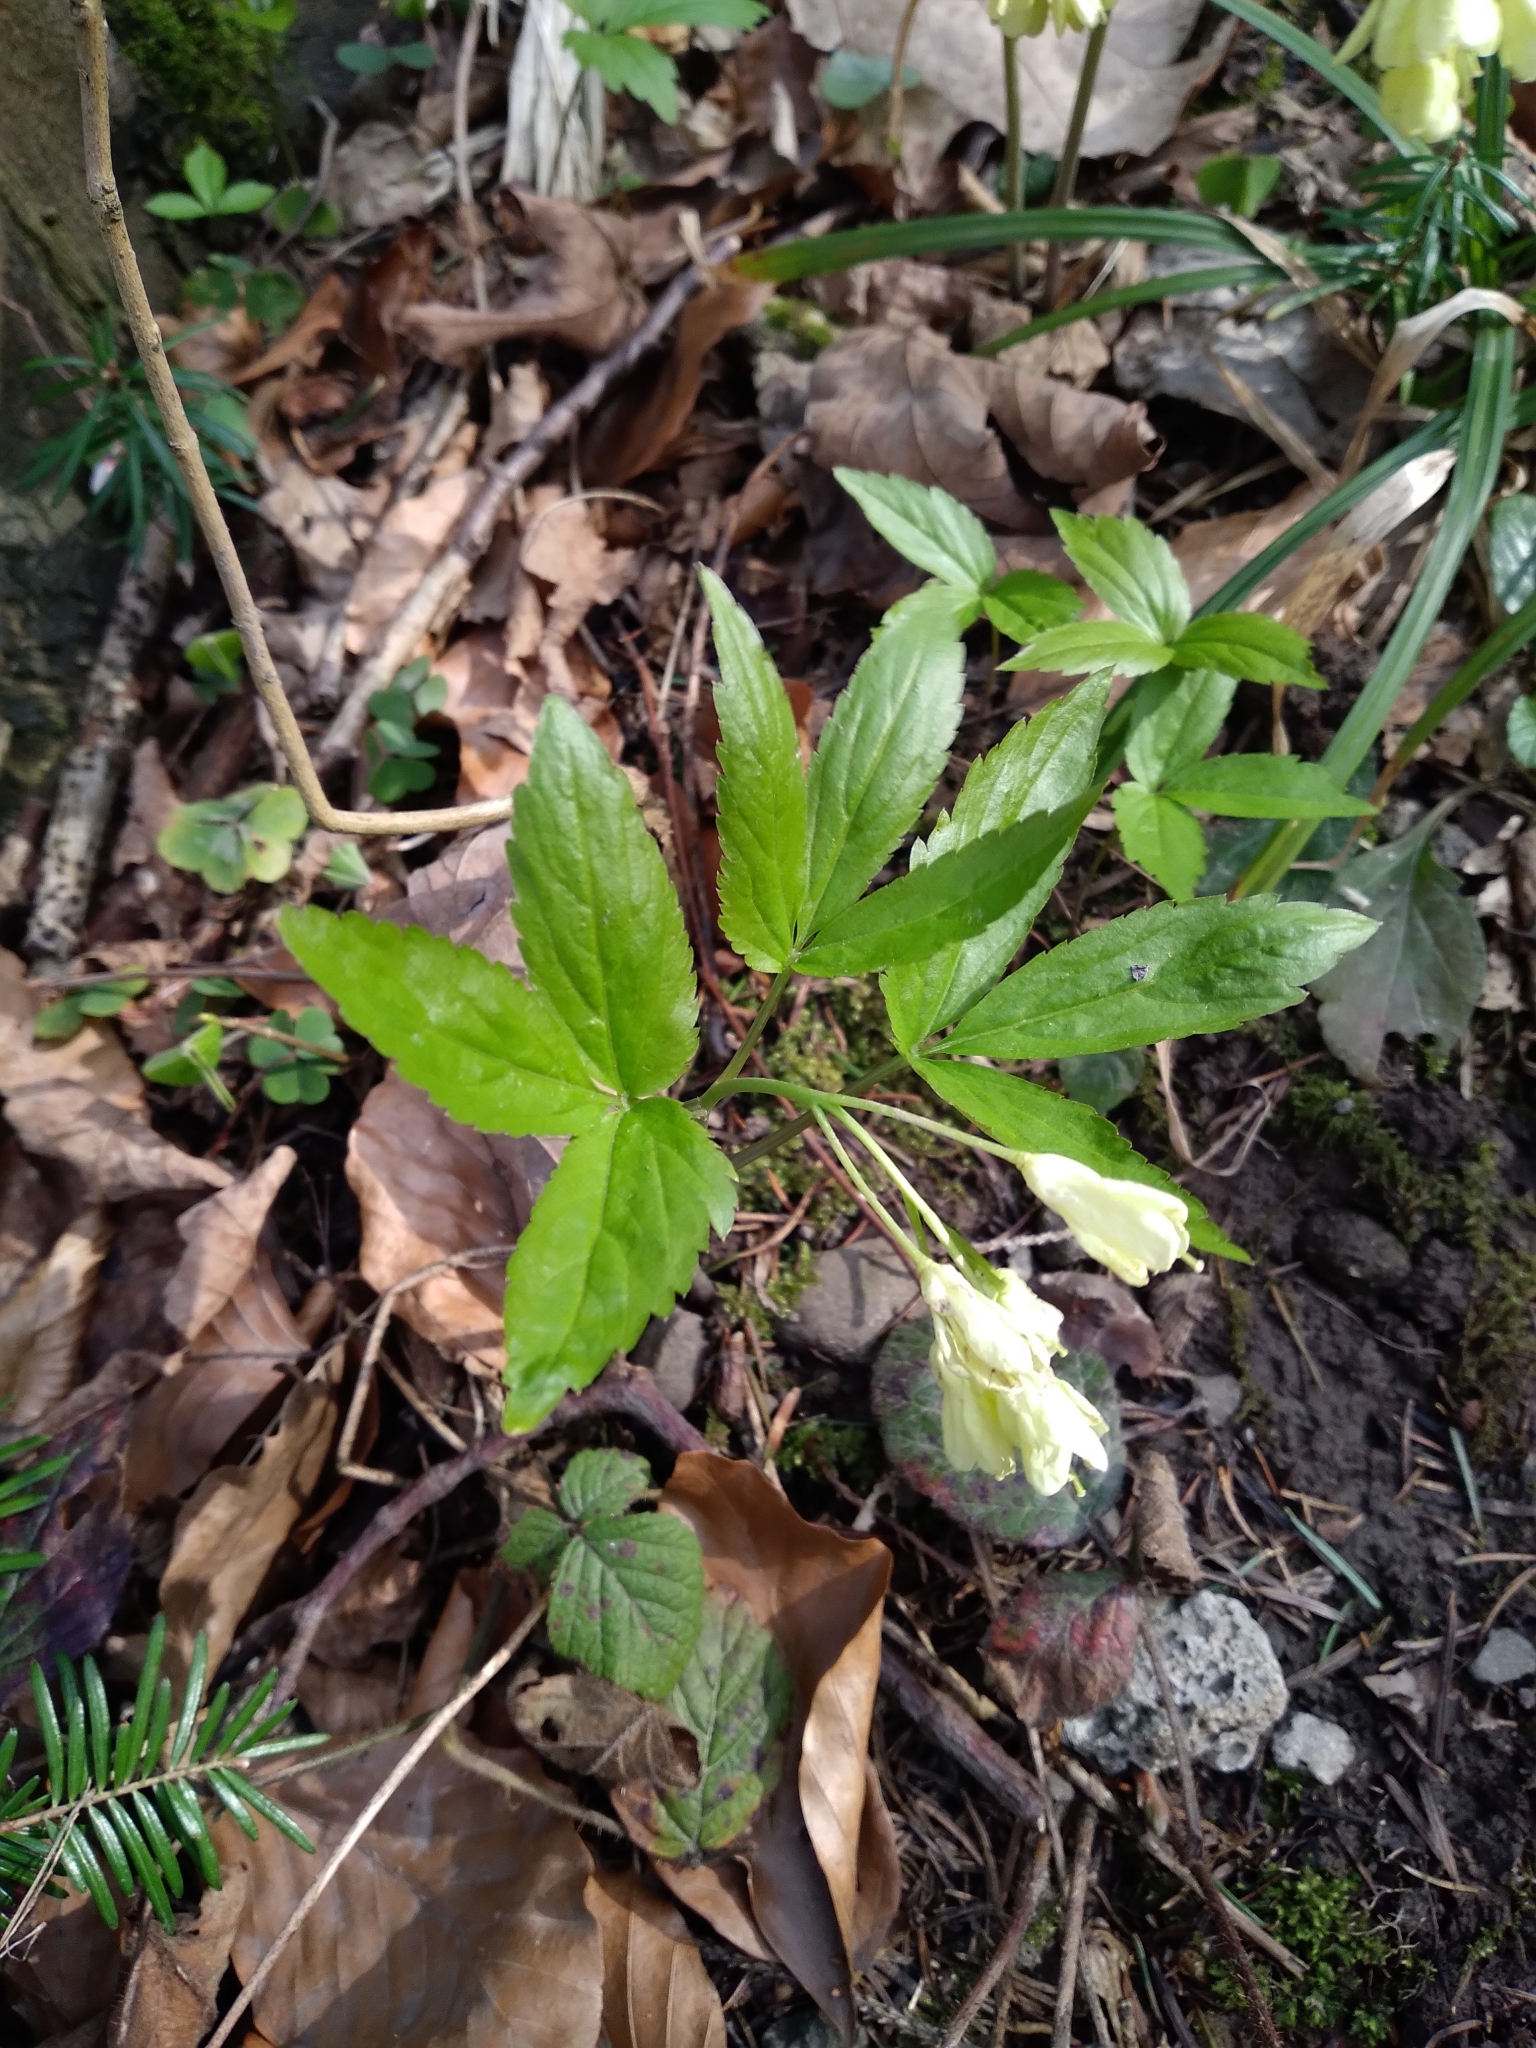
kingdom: Plantae
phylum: Tracheophyta
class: Magnoliopsida
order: Brassicales
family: Brassicaceae
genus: Cardamine
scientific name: Cardamine enneaphyllos
